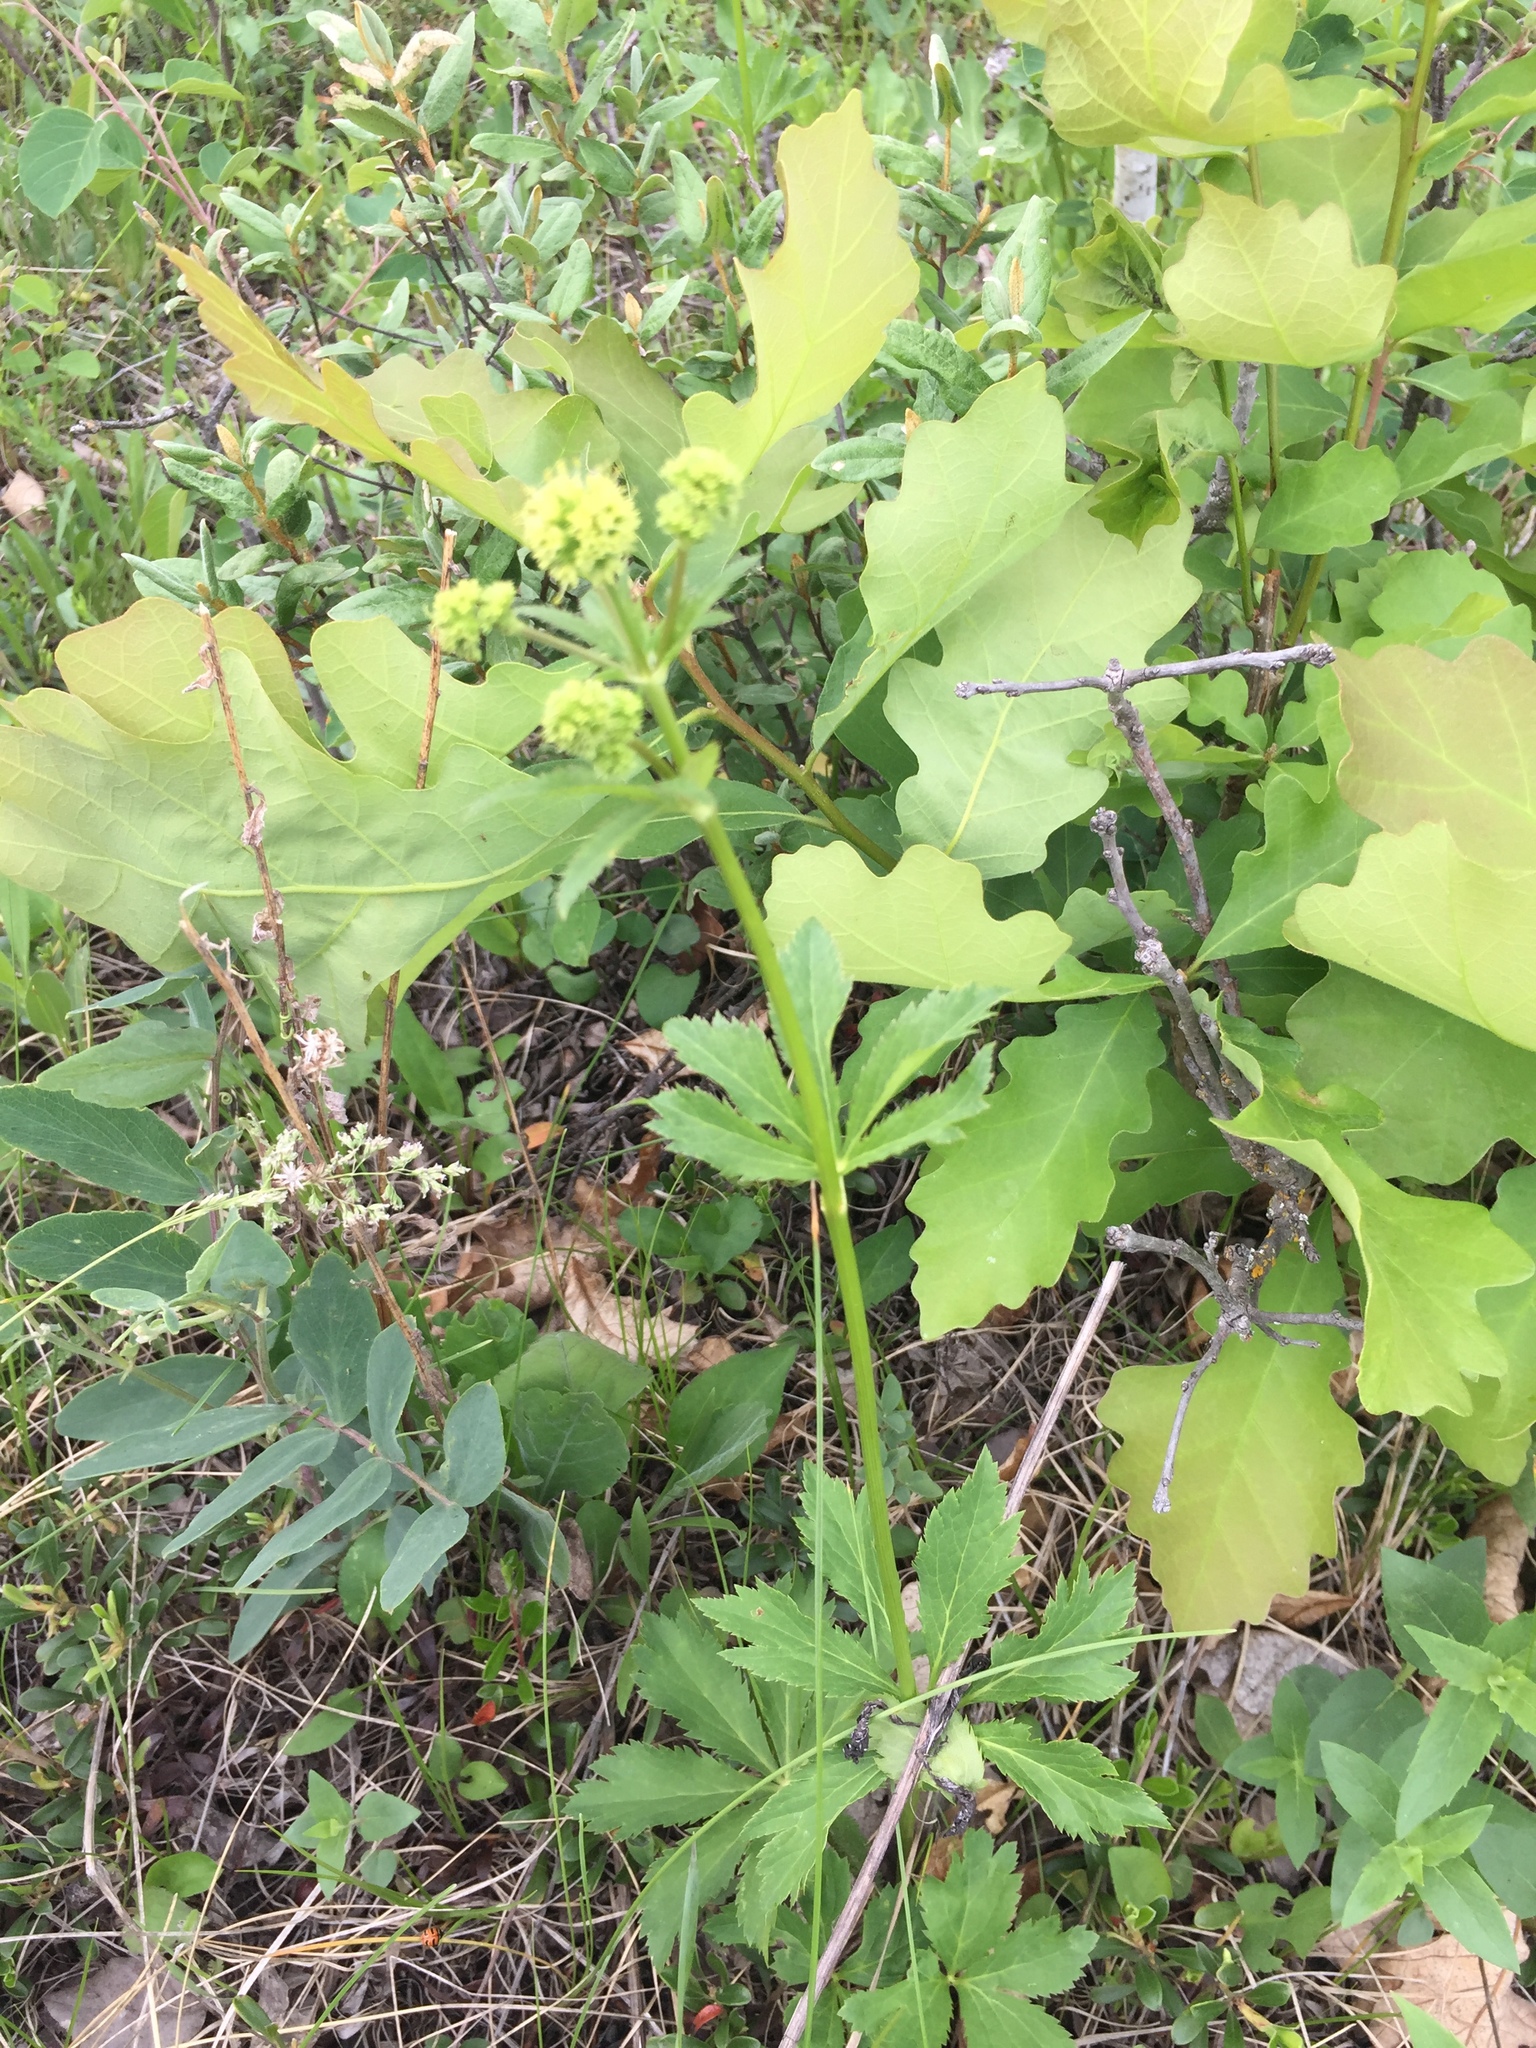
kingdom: Plantae
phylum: Tracheophyta
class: Magnoliopsida
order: Apiales
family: Apiaceae
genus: Sanicula
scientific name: Sanicula marilandica
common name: Black snakeroot
